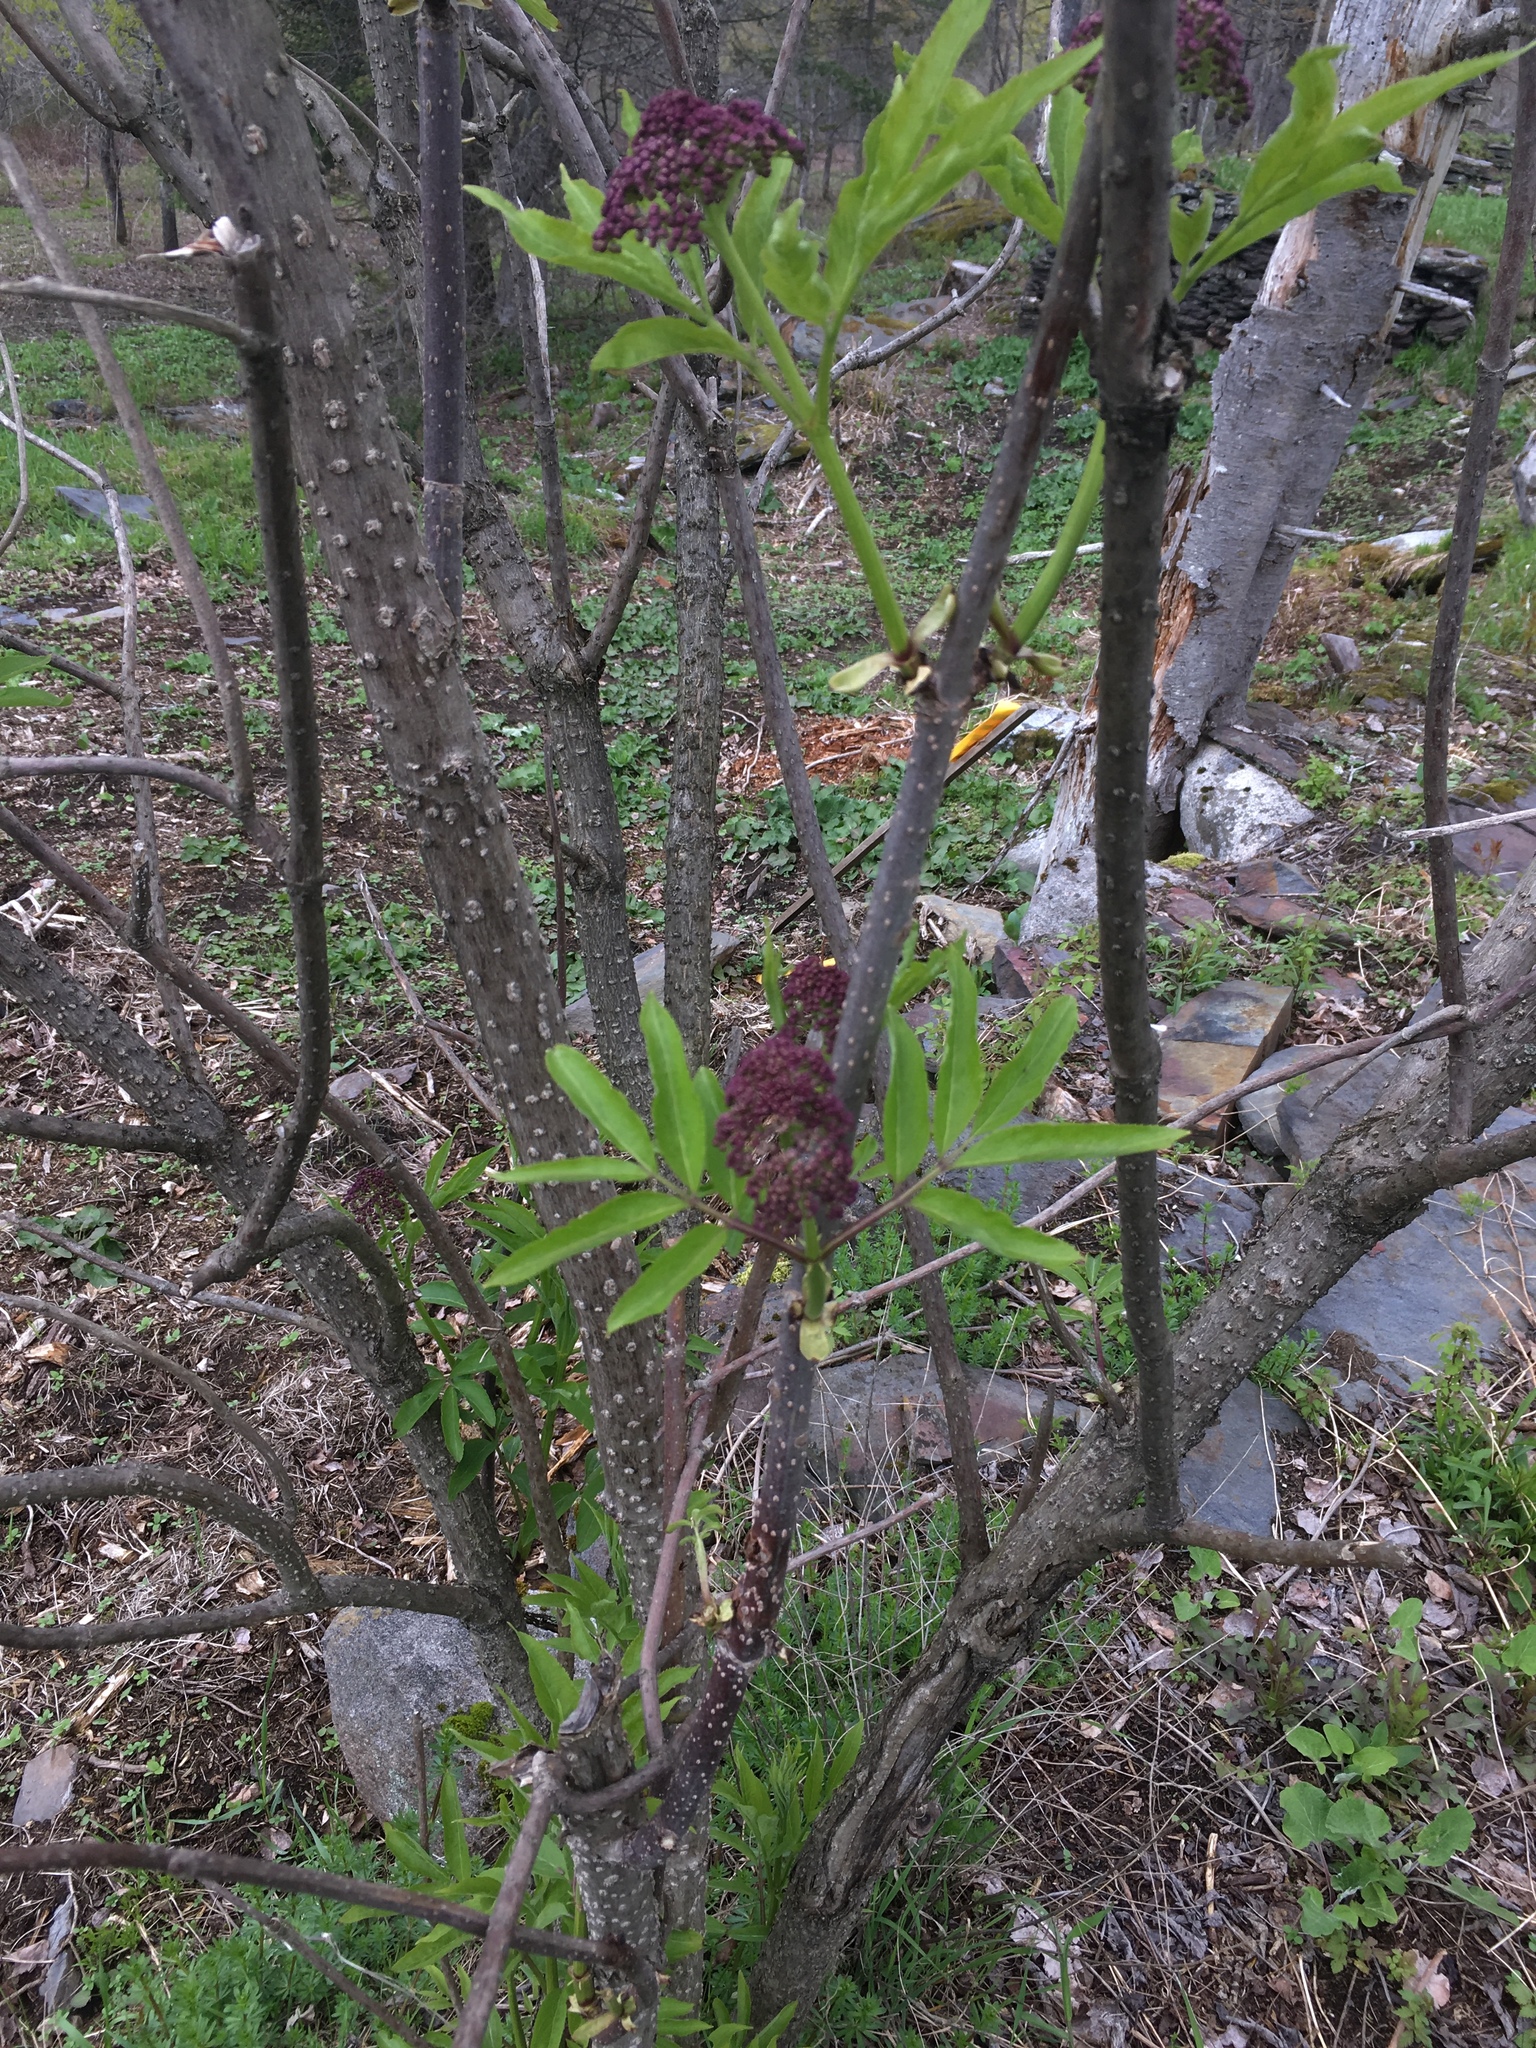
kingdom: Plantae
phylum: Tracheophyta
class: Magnoliopsida
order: Dipsacales
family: Viburnaceae
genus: Sambucus
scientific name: Sambucus racemosa
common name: Red-berried elder
